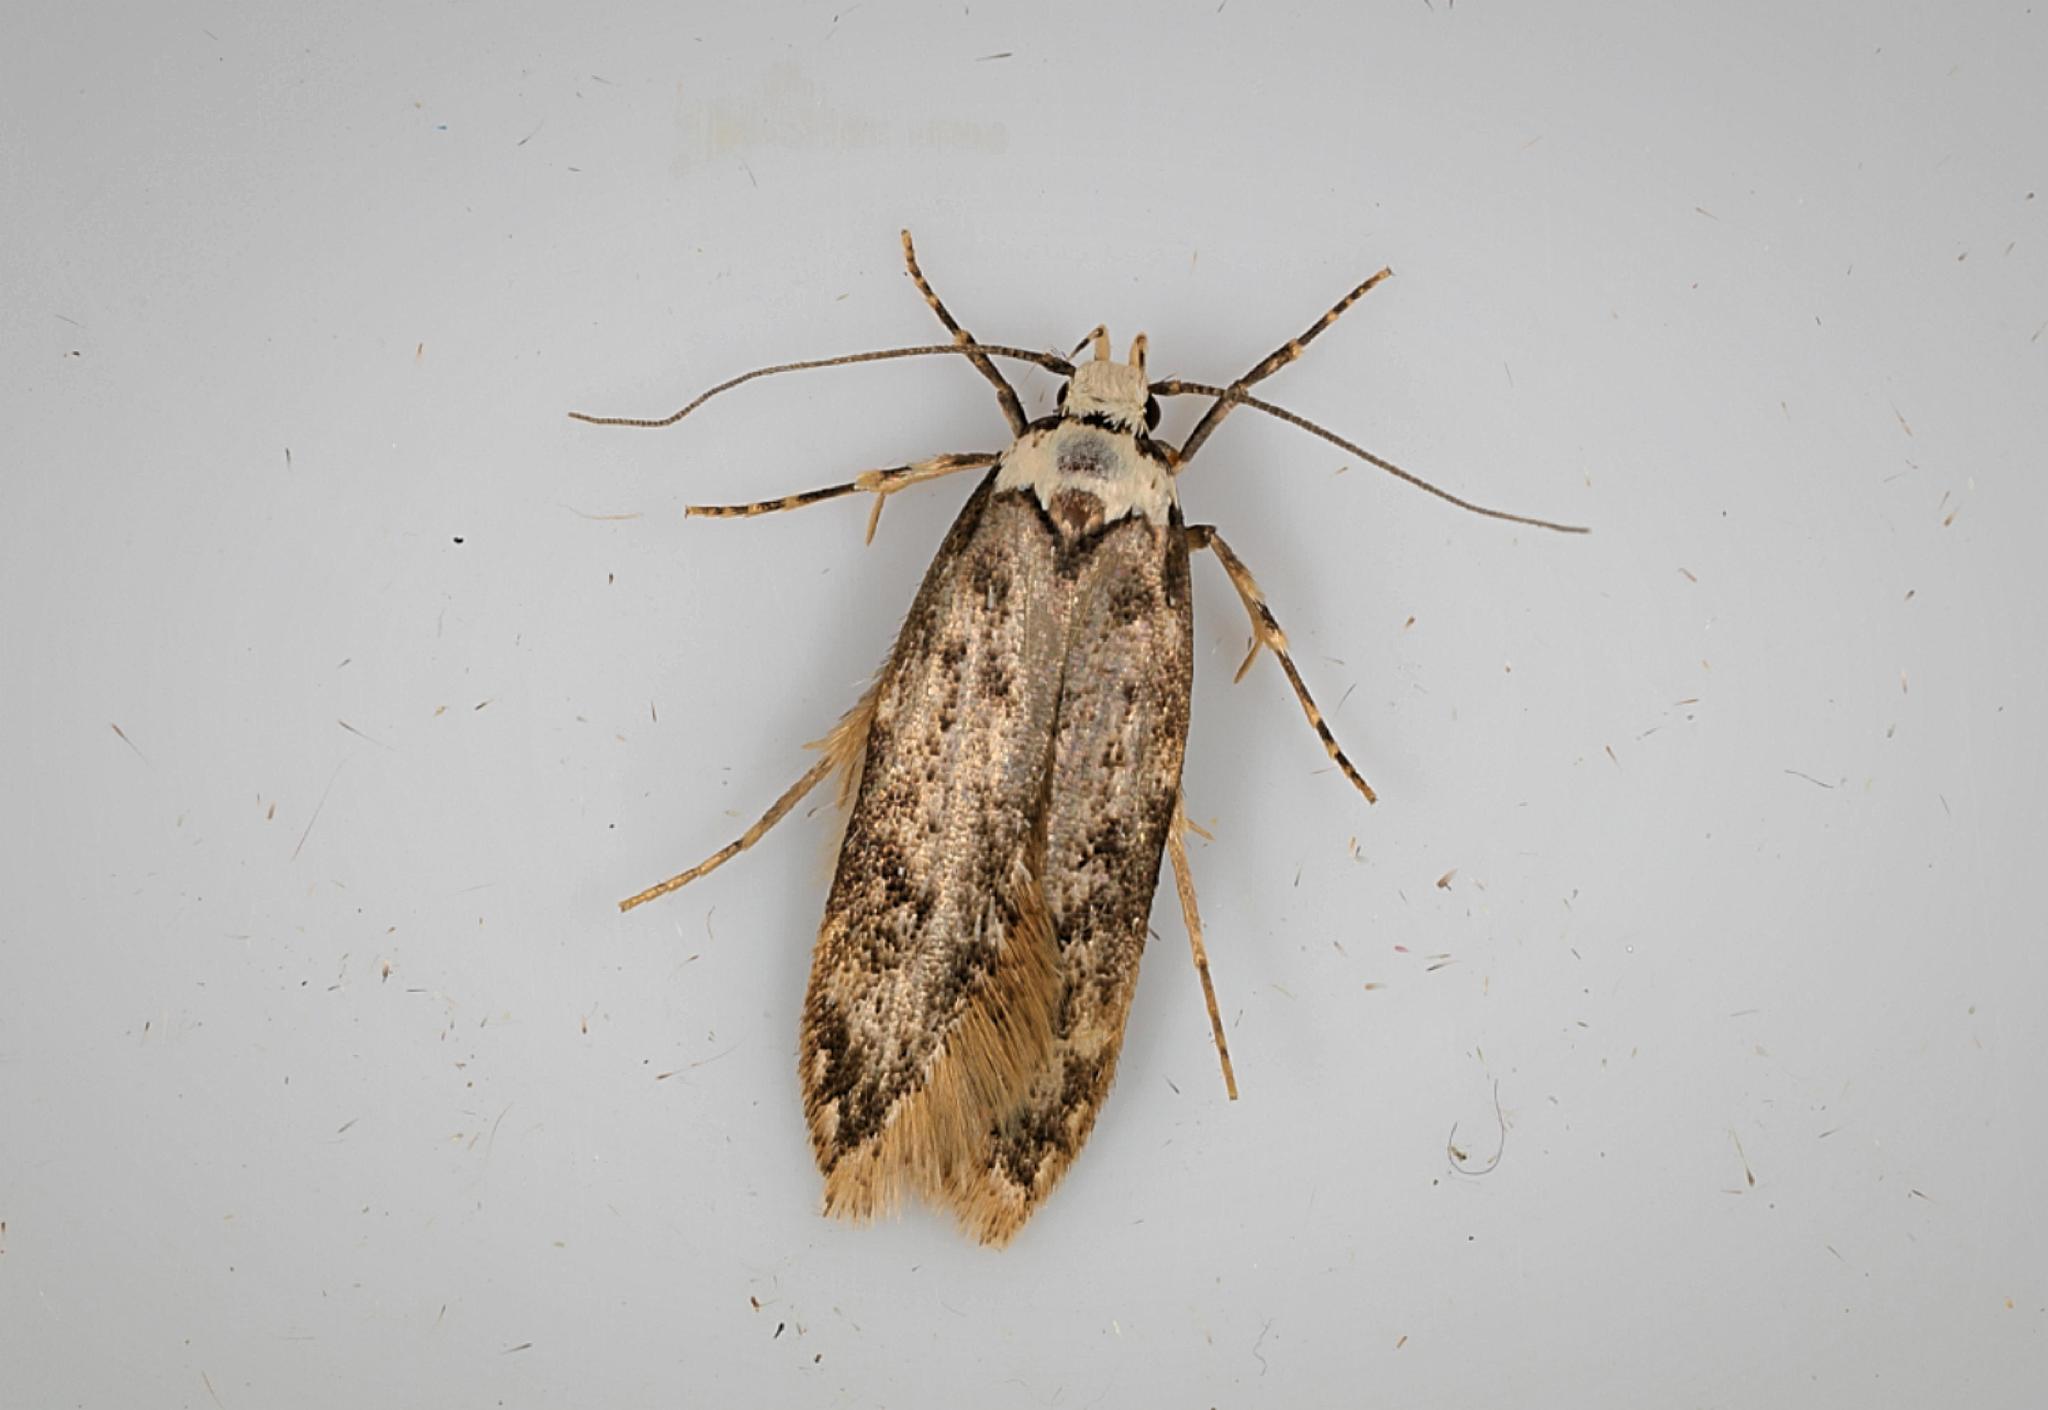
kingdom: Animalia
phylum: Arthropoda
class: Insecta
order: Lepidoptera
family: Oecophoridae
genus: Endrosis
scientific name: Endrosis sarcitrella
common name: White-shouldered house moth
